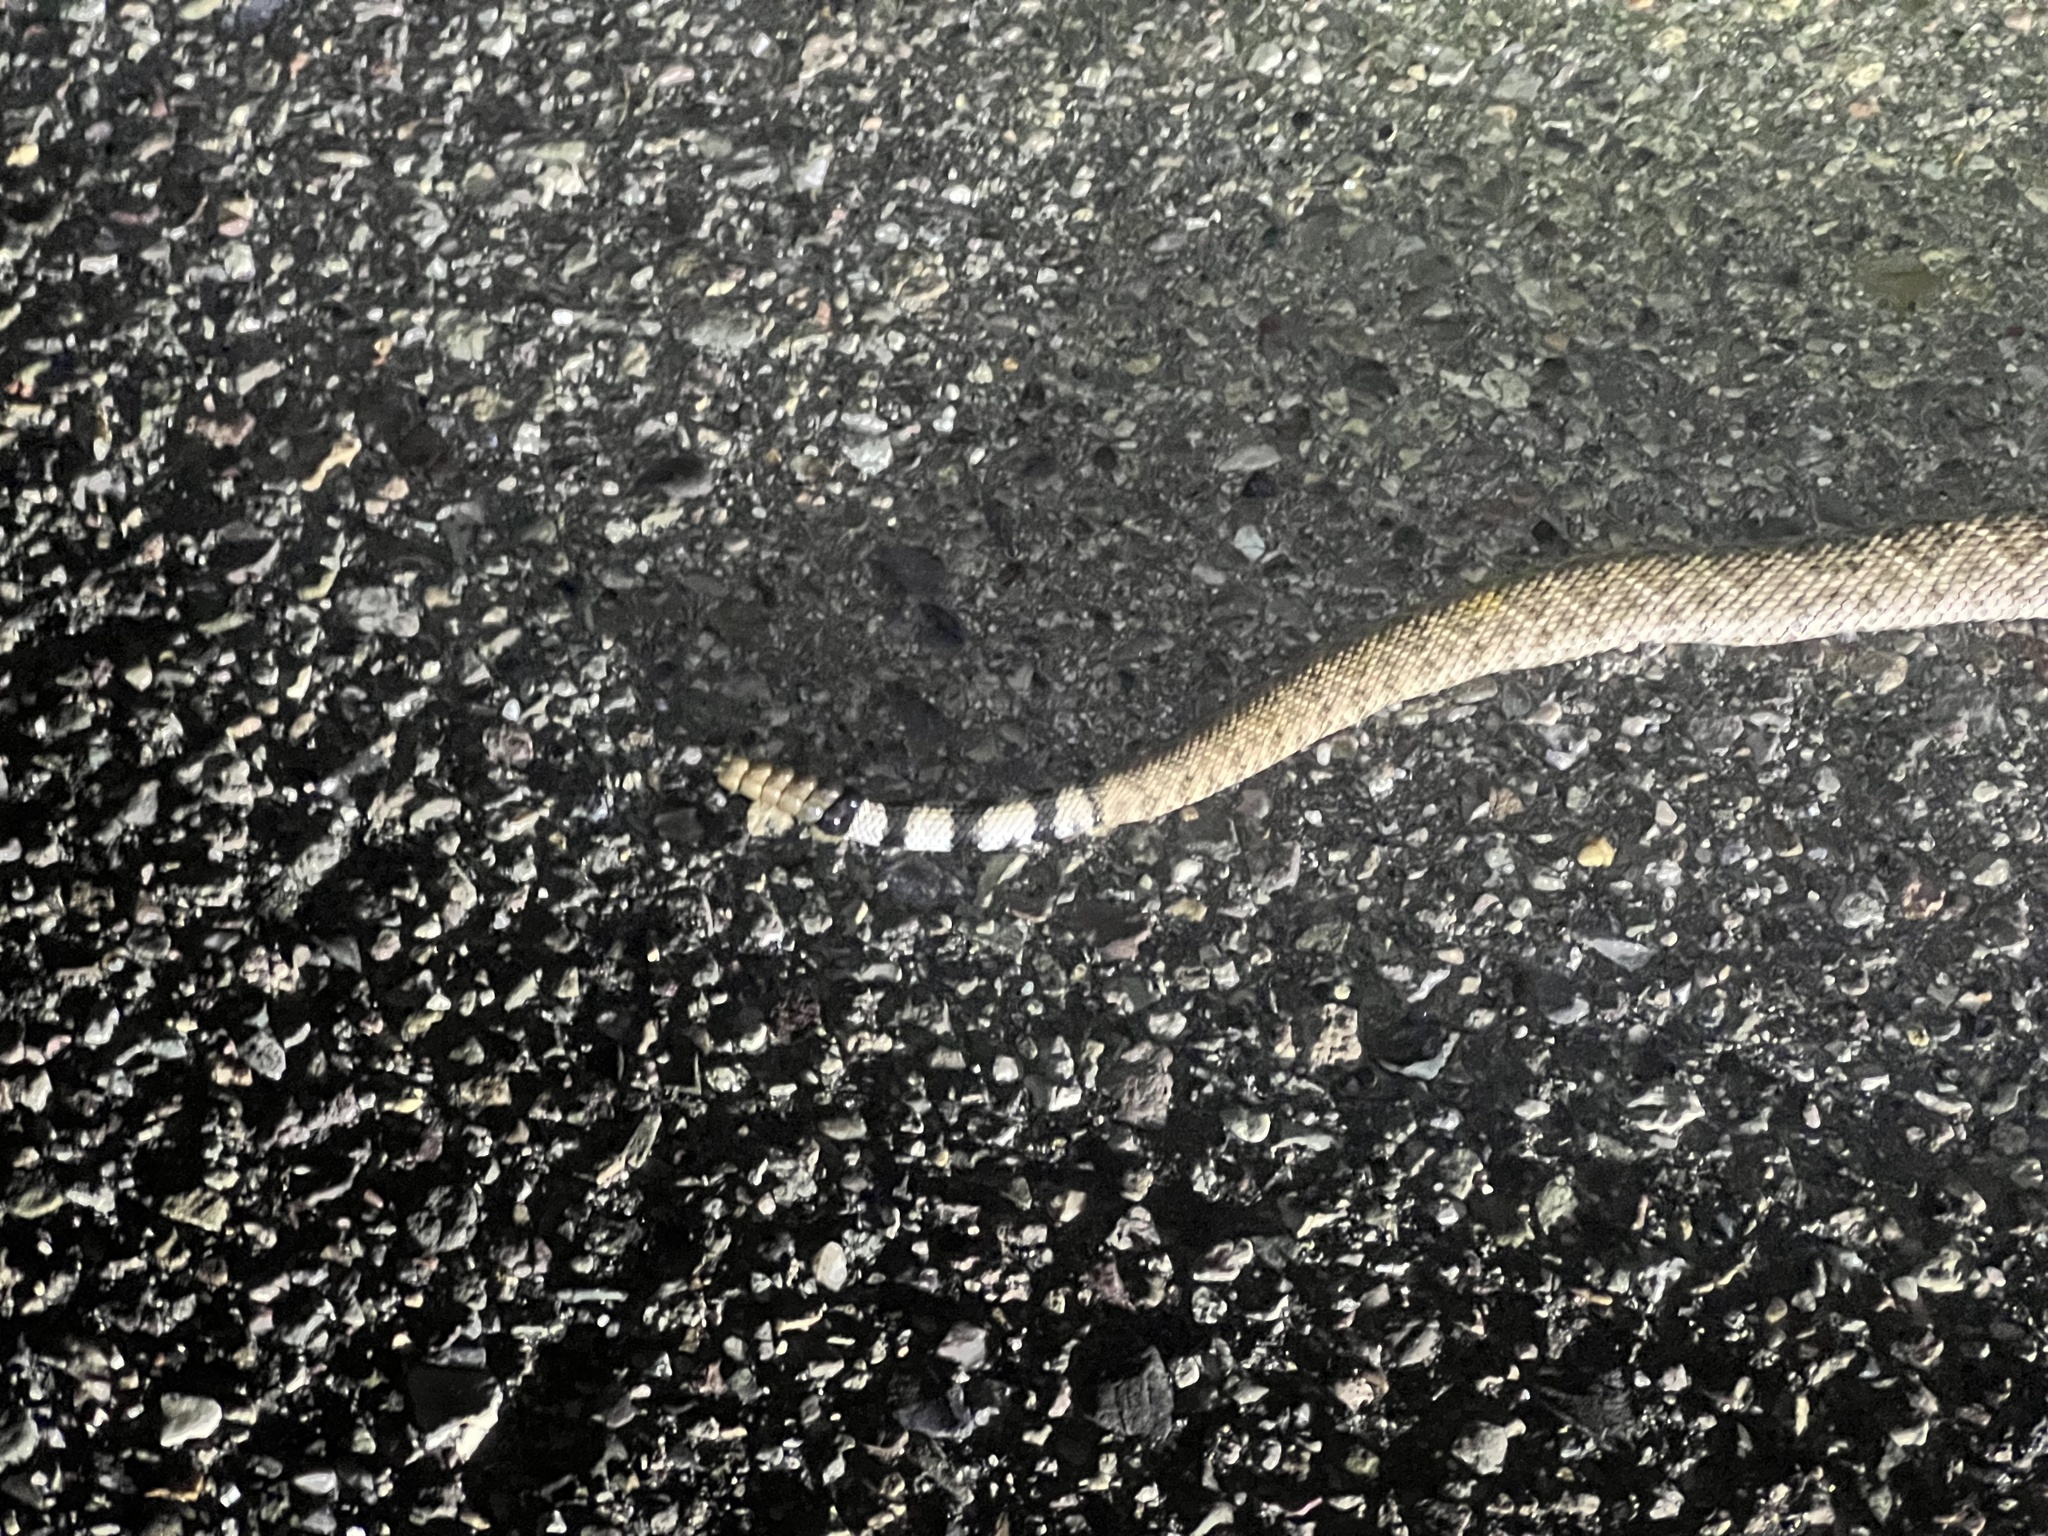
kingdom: Animalia
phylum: Chordata
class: Squamata
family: Viperidae
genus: Crotalus
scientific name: Crotalus atrox
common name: Western diamond-backed rattlesnake
